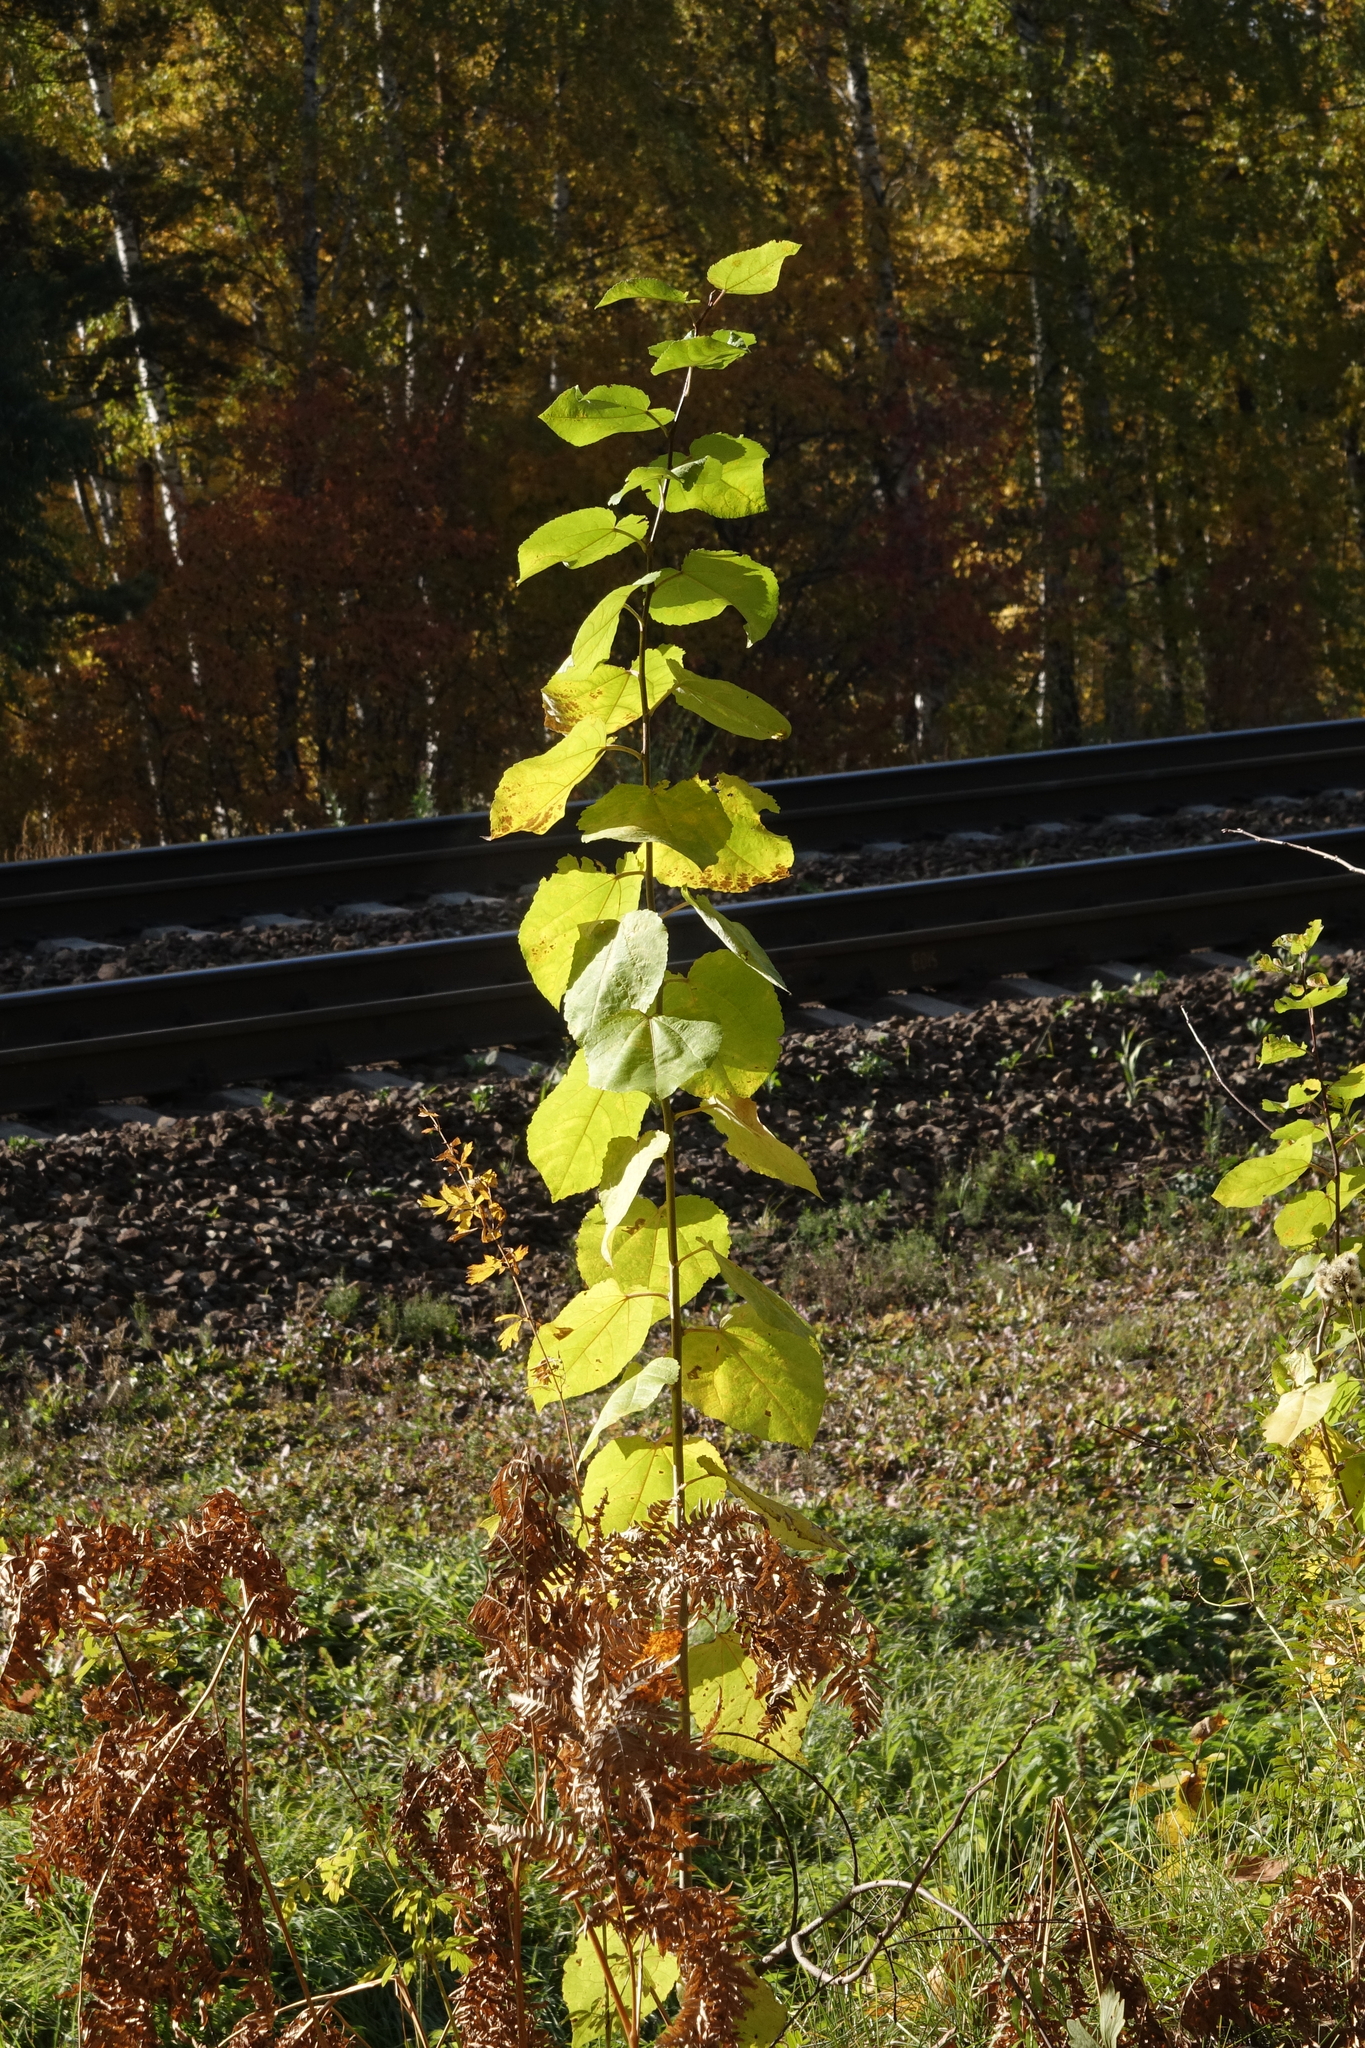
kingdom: Plantae
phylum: Tracheophyta
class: Magnoliopsida
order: Malpighiales
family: Salicaceae
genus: Populus
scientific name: Populus tremula
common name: European aspen
